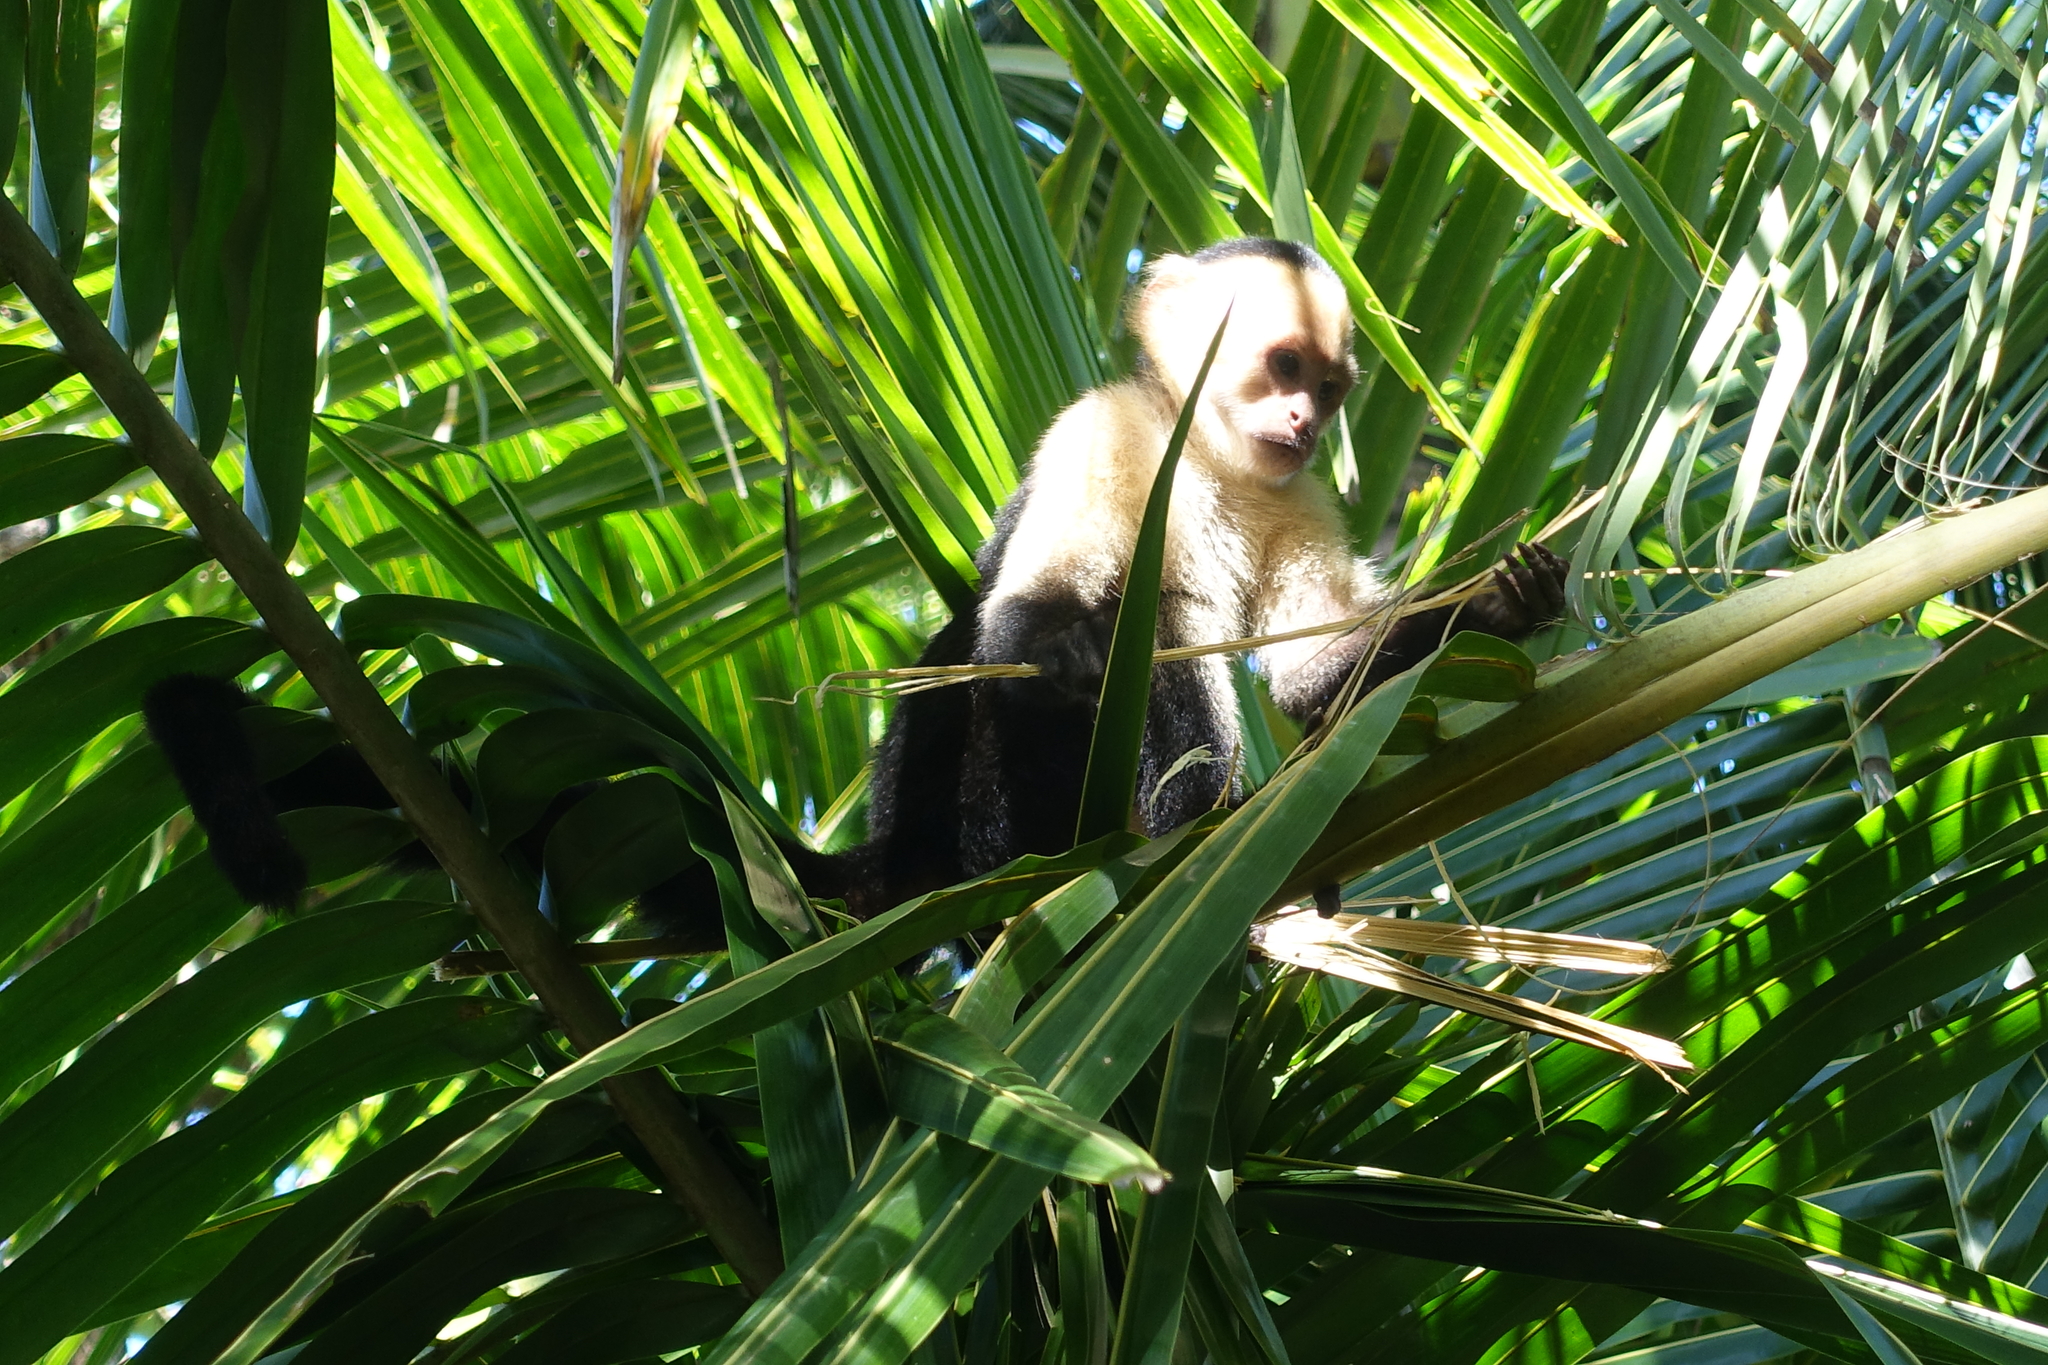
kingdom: Animalia
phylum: Chordata
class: Mammalia
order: Primates
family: Cebidae
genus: Cebus
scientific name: Cebus imitator
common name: Panamanian white-faced capuchin
